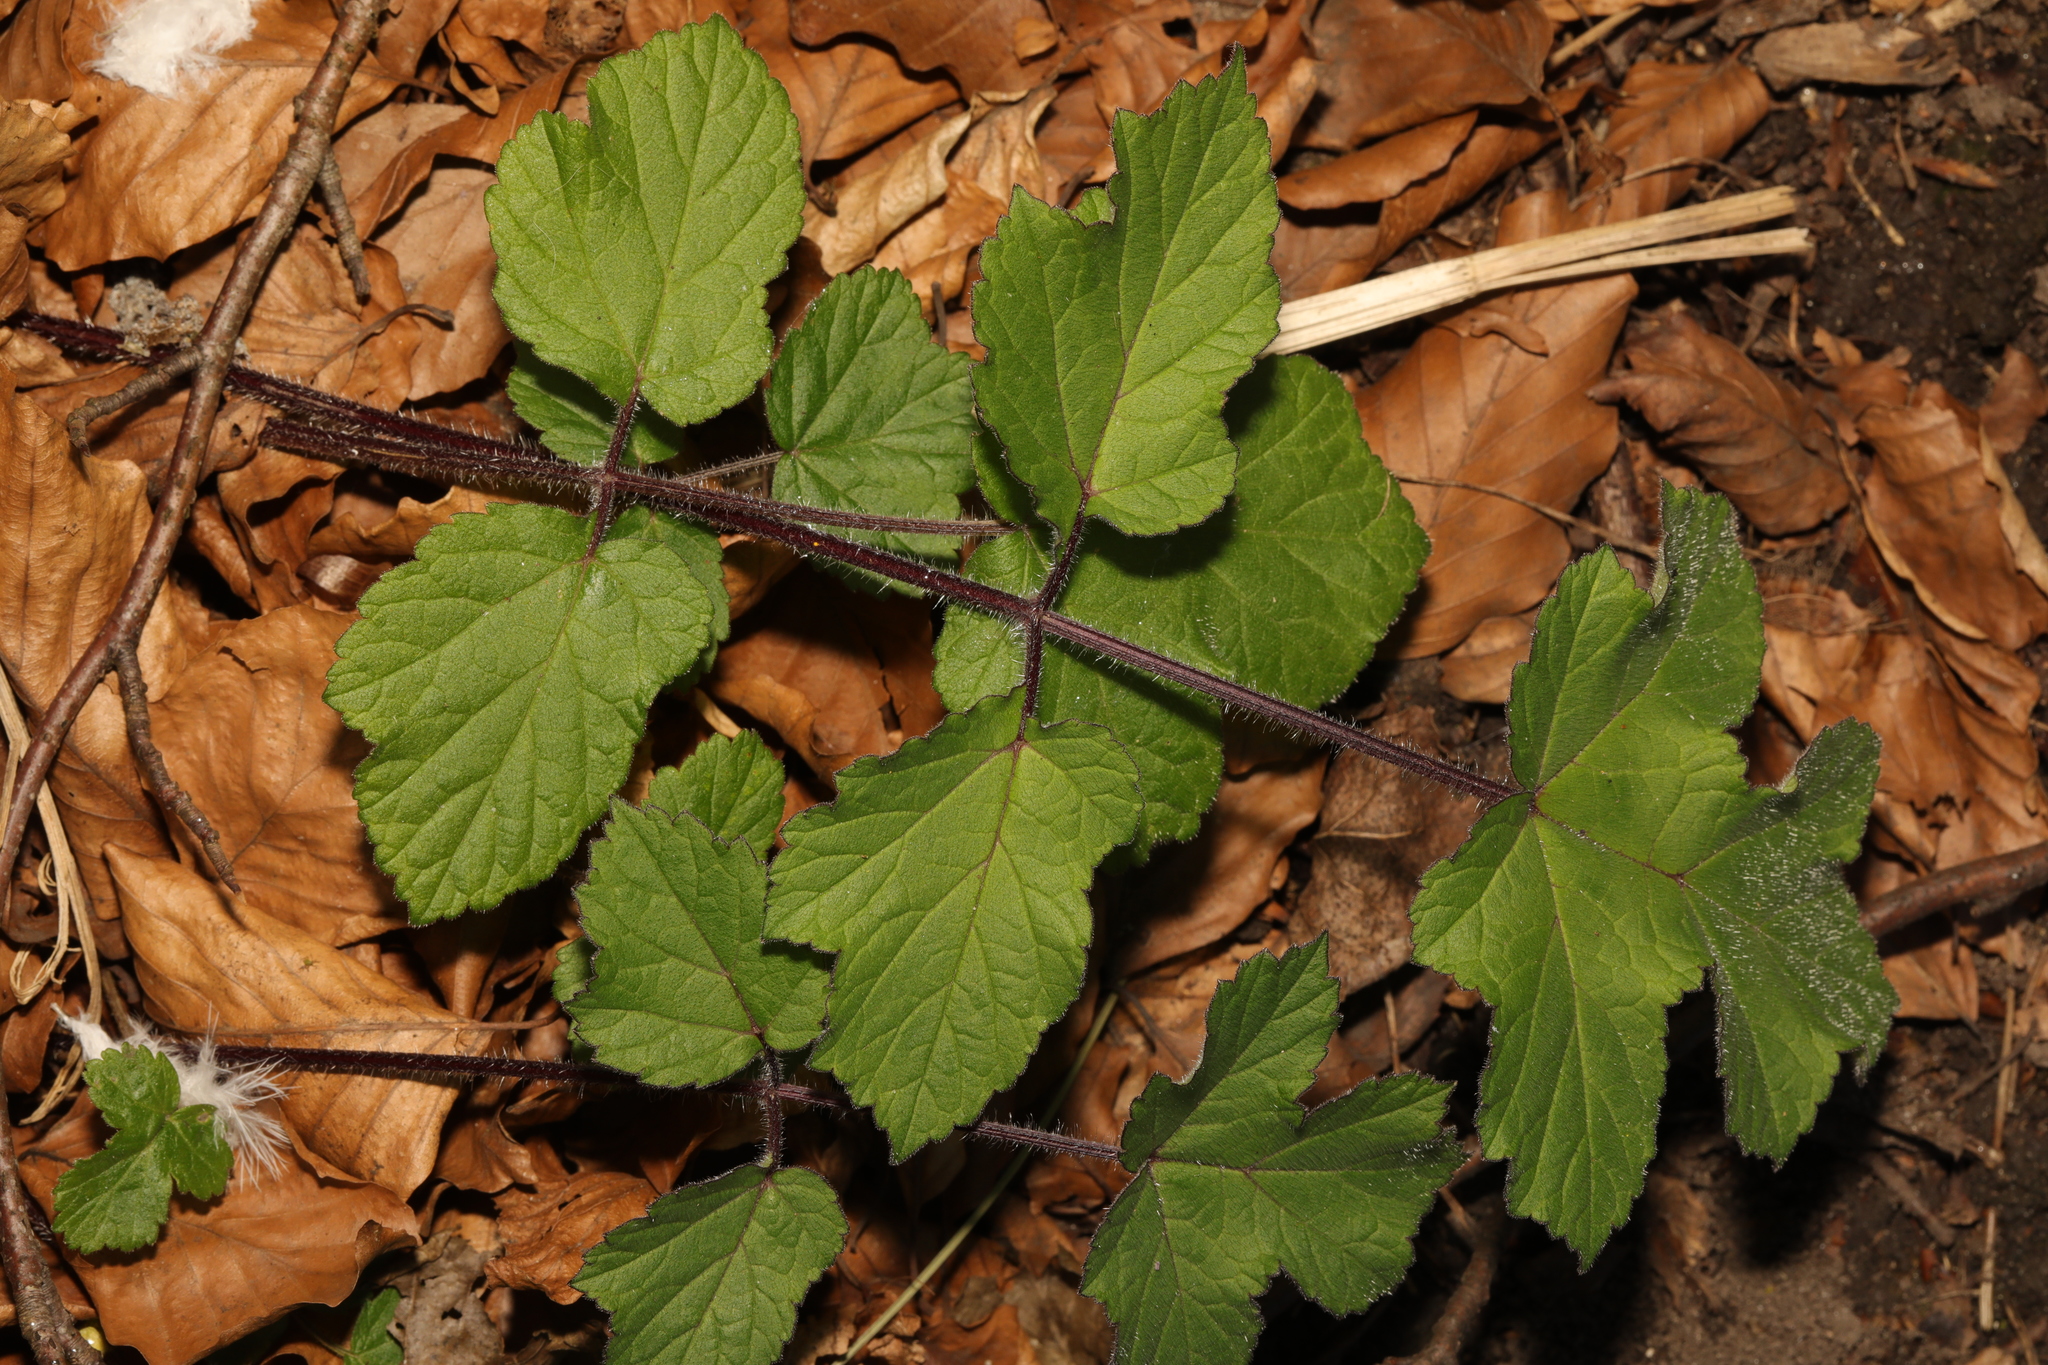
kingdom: Plantae
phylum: Tracheophyta
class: Magnoliopsida
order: Apiales
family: Apiaceae
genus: Heracleum
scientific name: Heracleum sphondylium
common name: Hogweed
